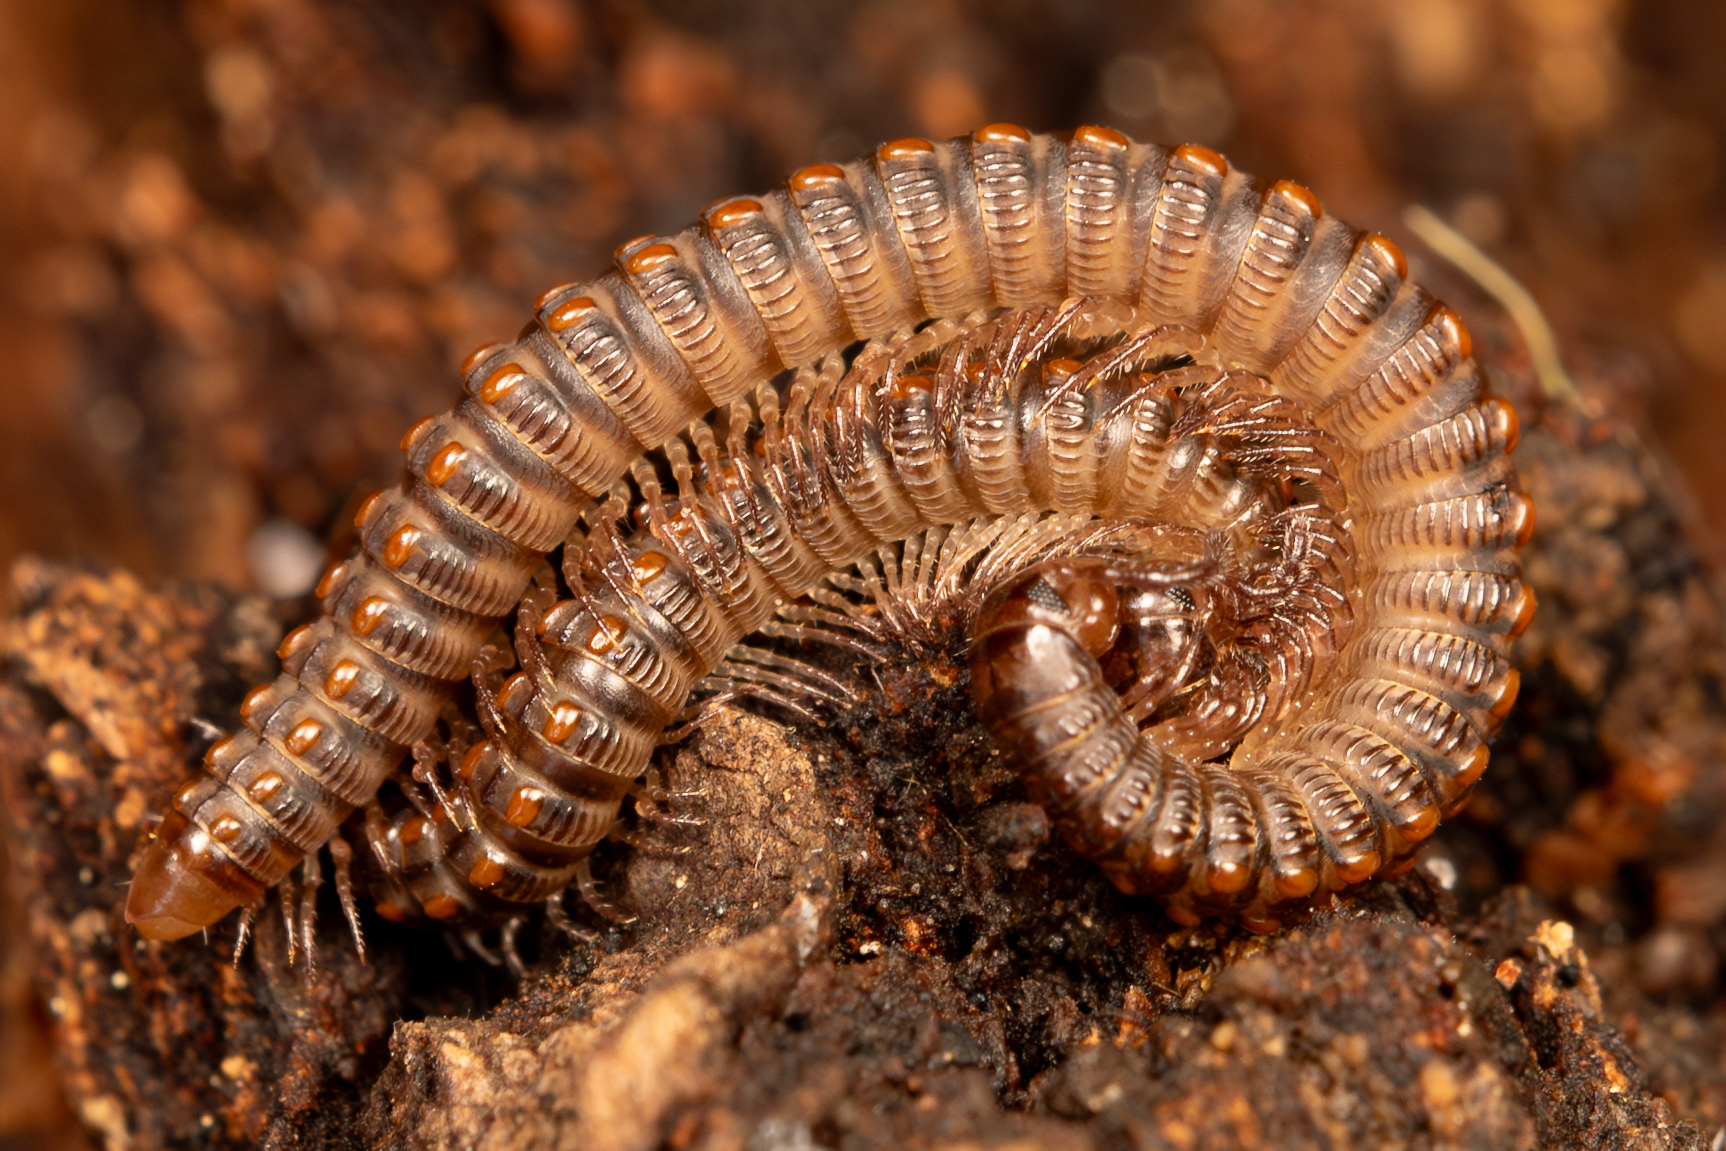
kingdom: Animalia
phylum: Arthropoda
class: Diplopoda
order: Julida
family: Chelojulidae
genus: Chelojulus
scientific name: Chelojulus sculpturatus
